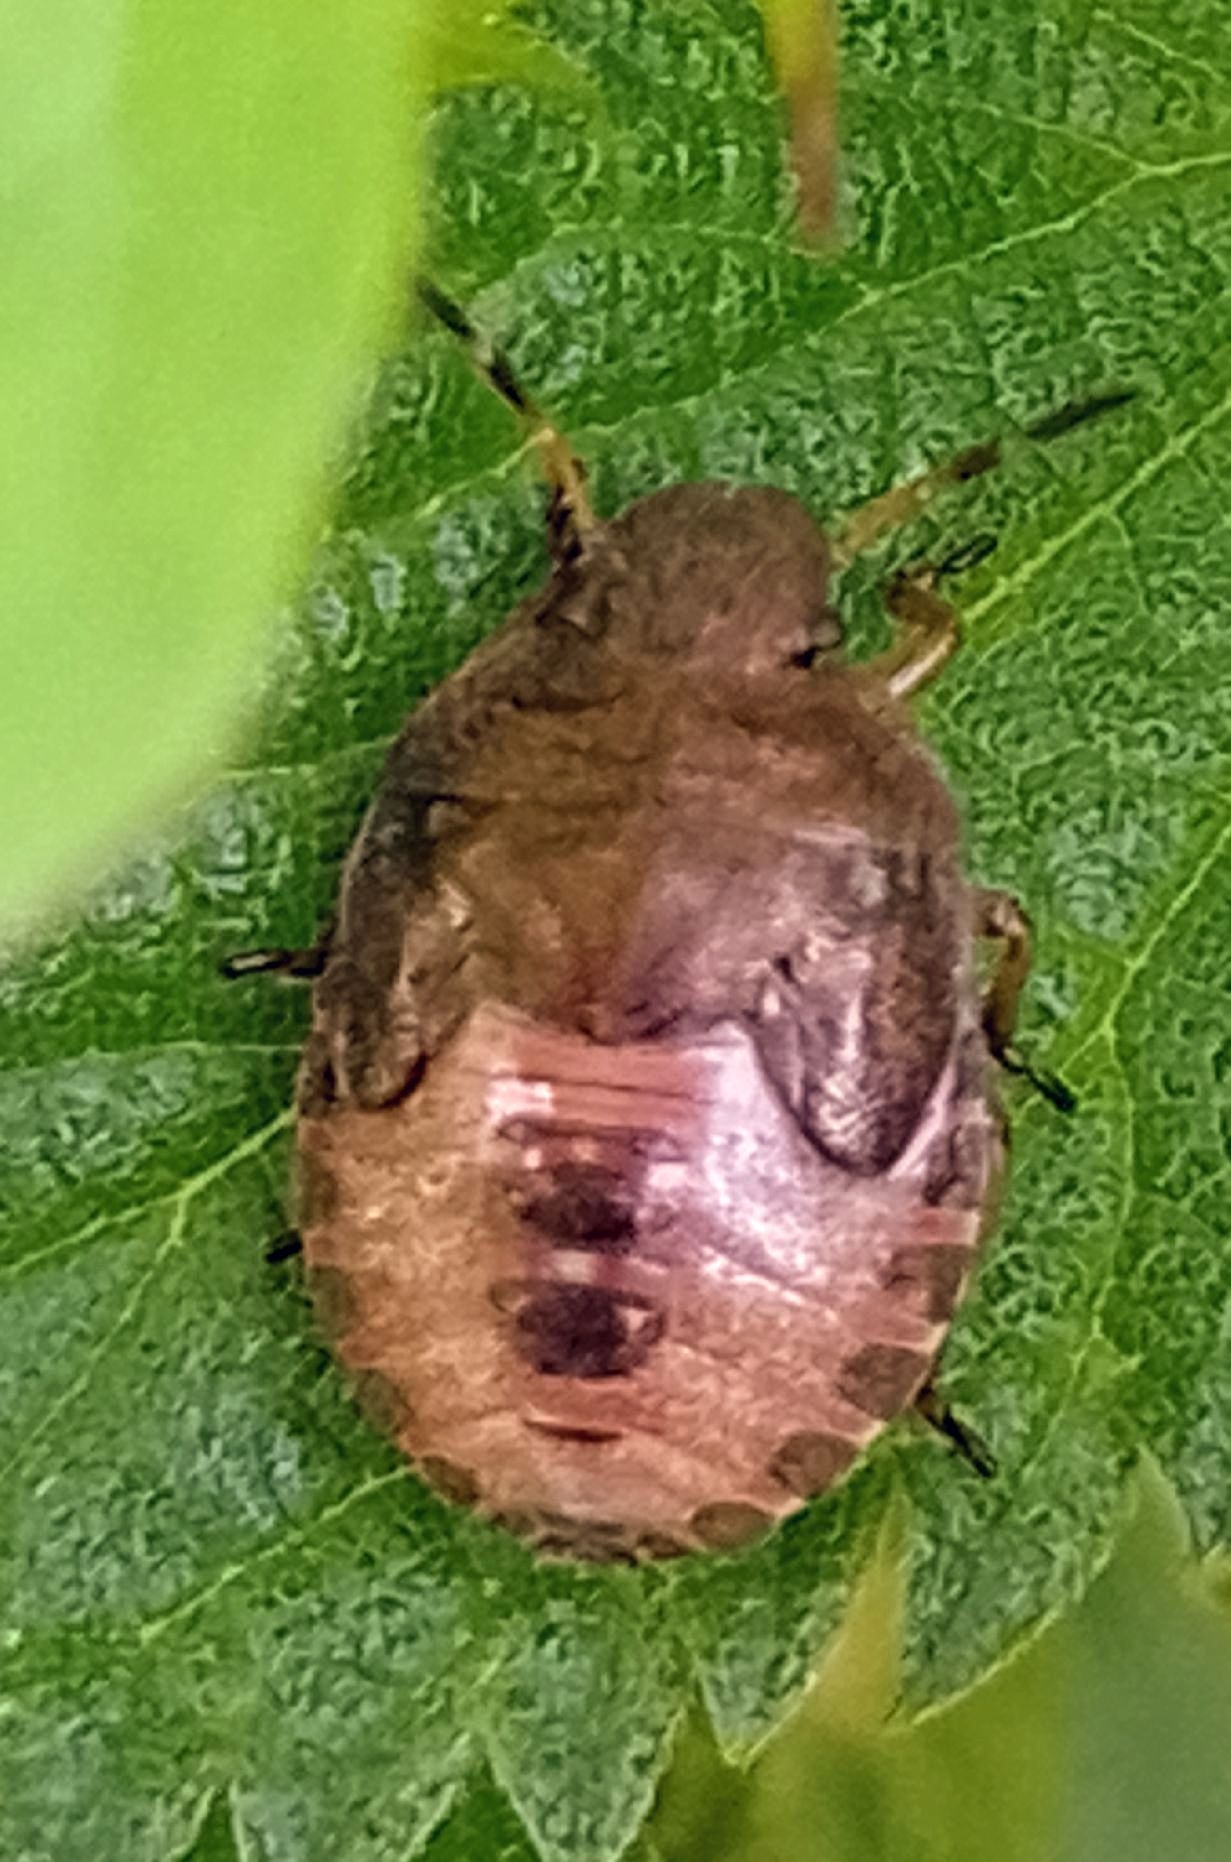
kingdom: Animalia
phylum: Arthropoda
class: Insecta
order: Hemiptera
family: Pentatomidae
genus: Holcostethus
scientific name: Holcostethus strictus
